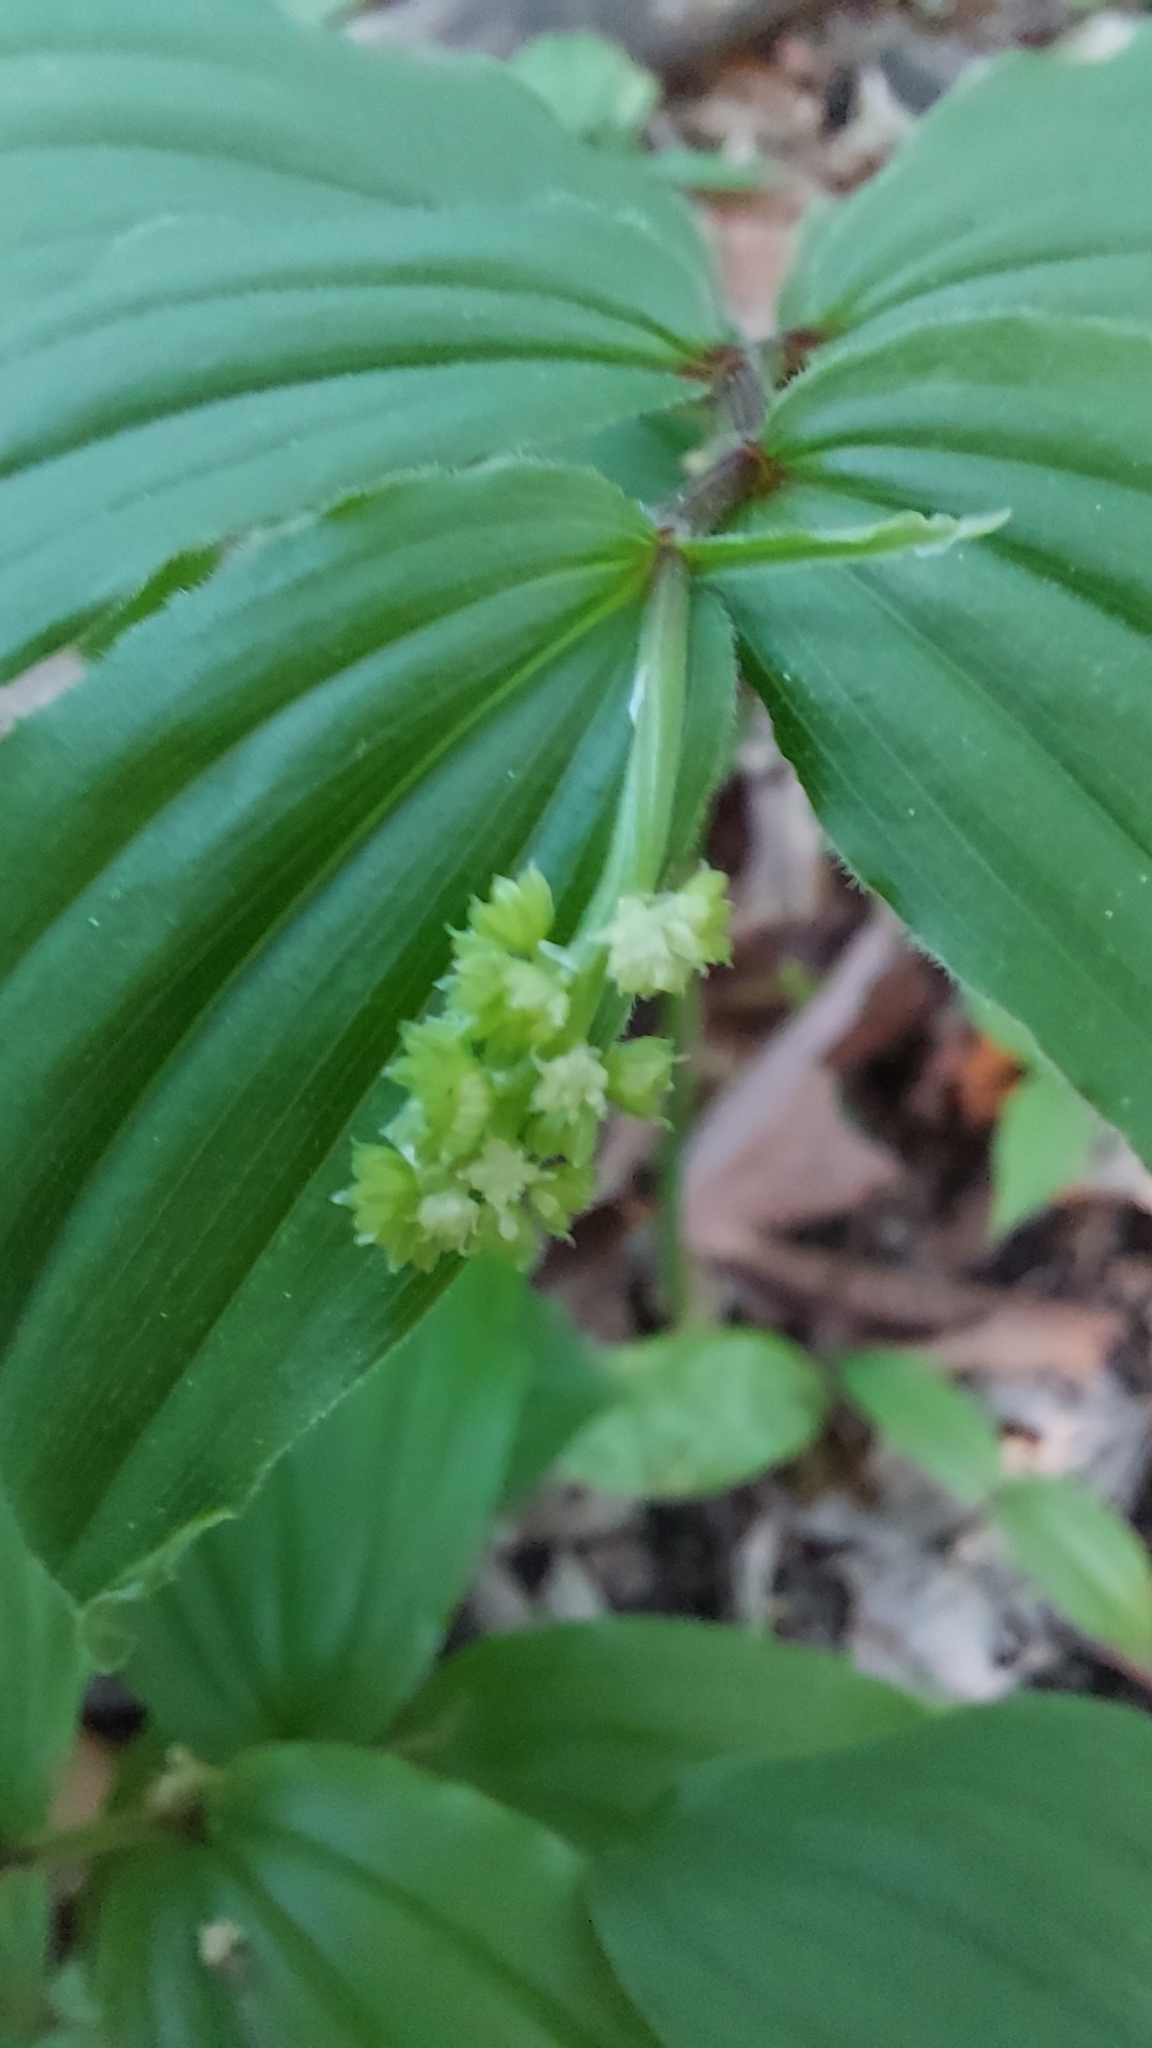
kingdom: Plantae
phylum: Tracheophyta
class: Liliopsida
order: Asparagales
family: Asparagaceae
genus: Maianthemum
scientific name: Maianthemum racemosum
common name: False spikenard
